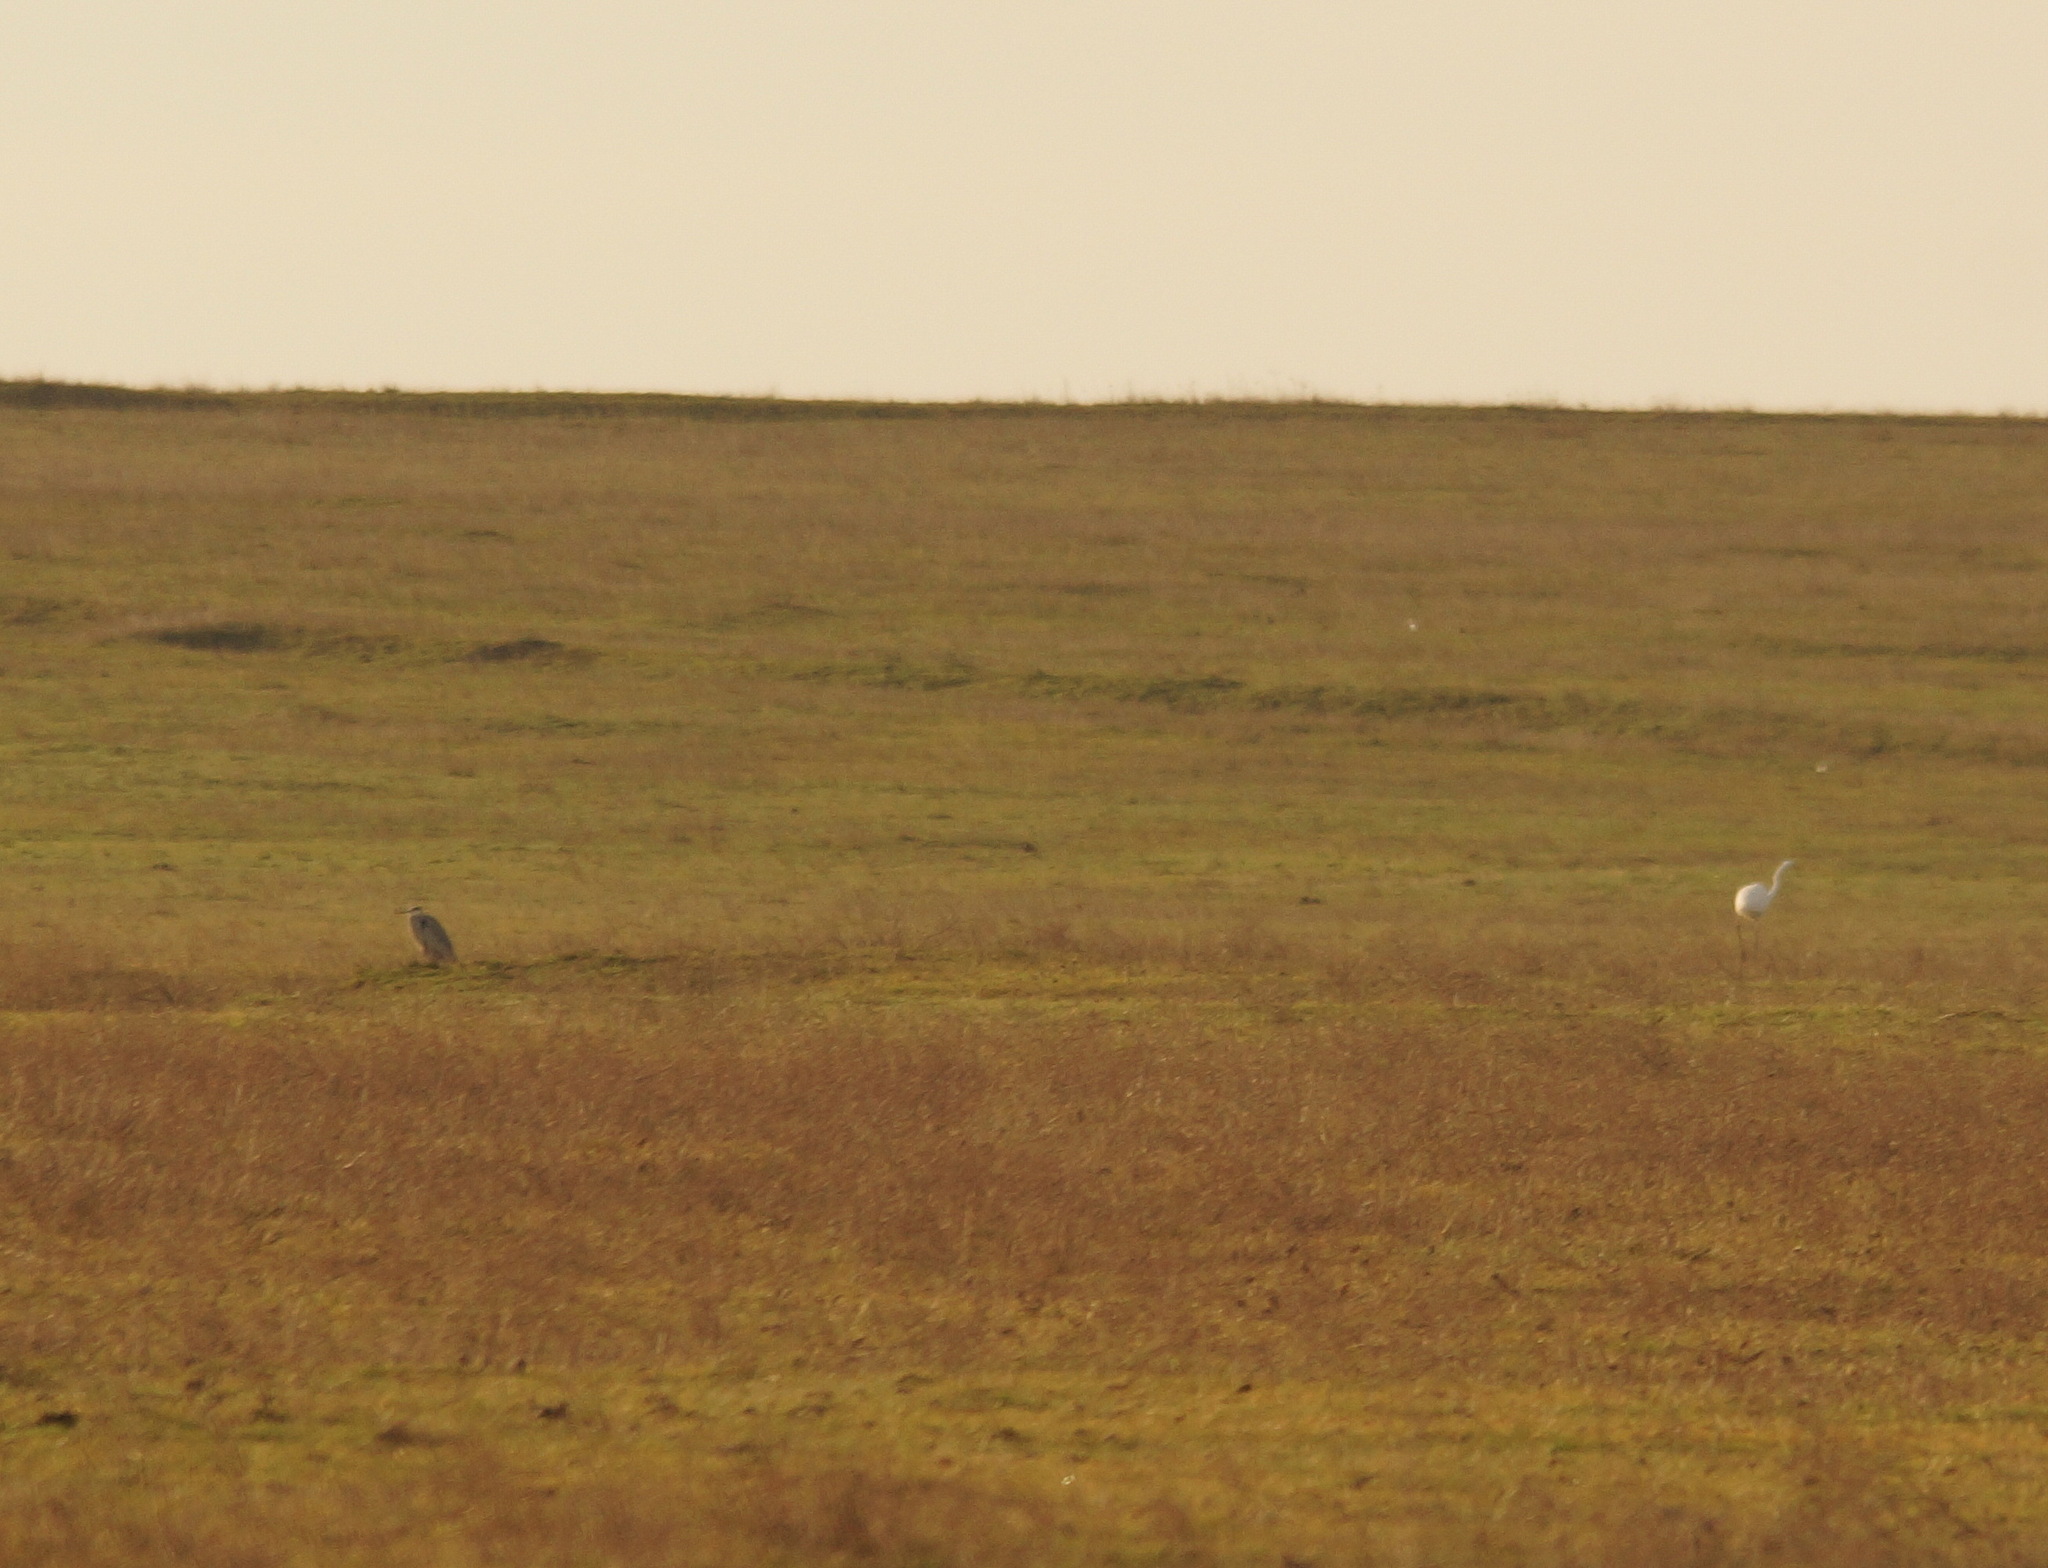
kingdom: Animalia
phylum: Chordata
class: Aves
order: Pelecaniformes
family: Ardeidae
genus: Ardea
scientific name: Ardea cinerea
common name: Grey heron
